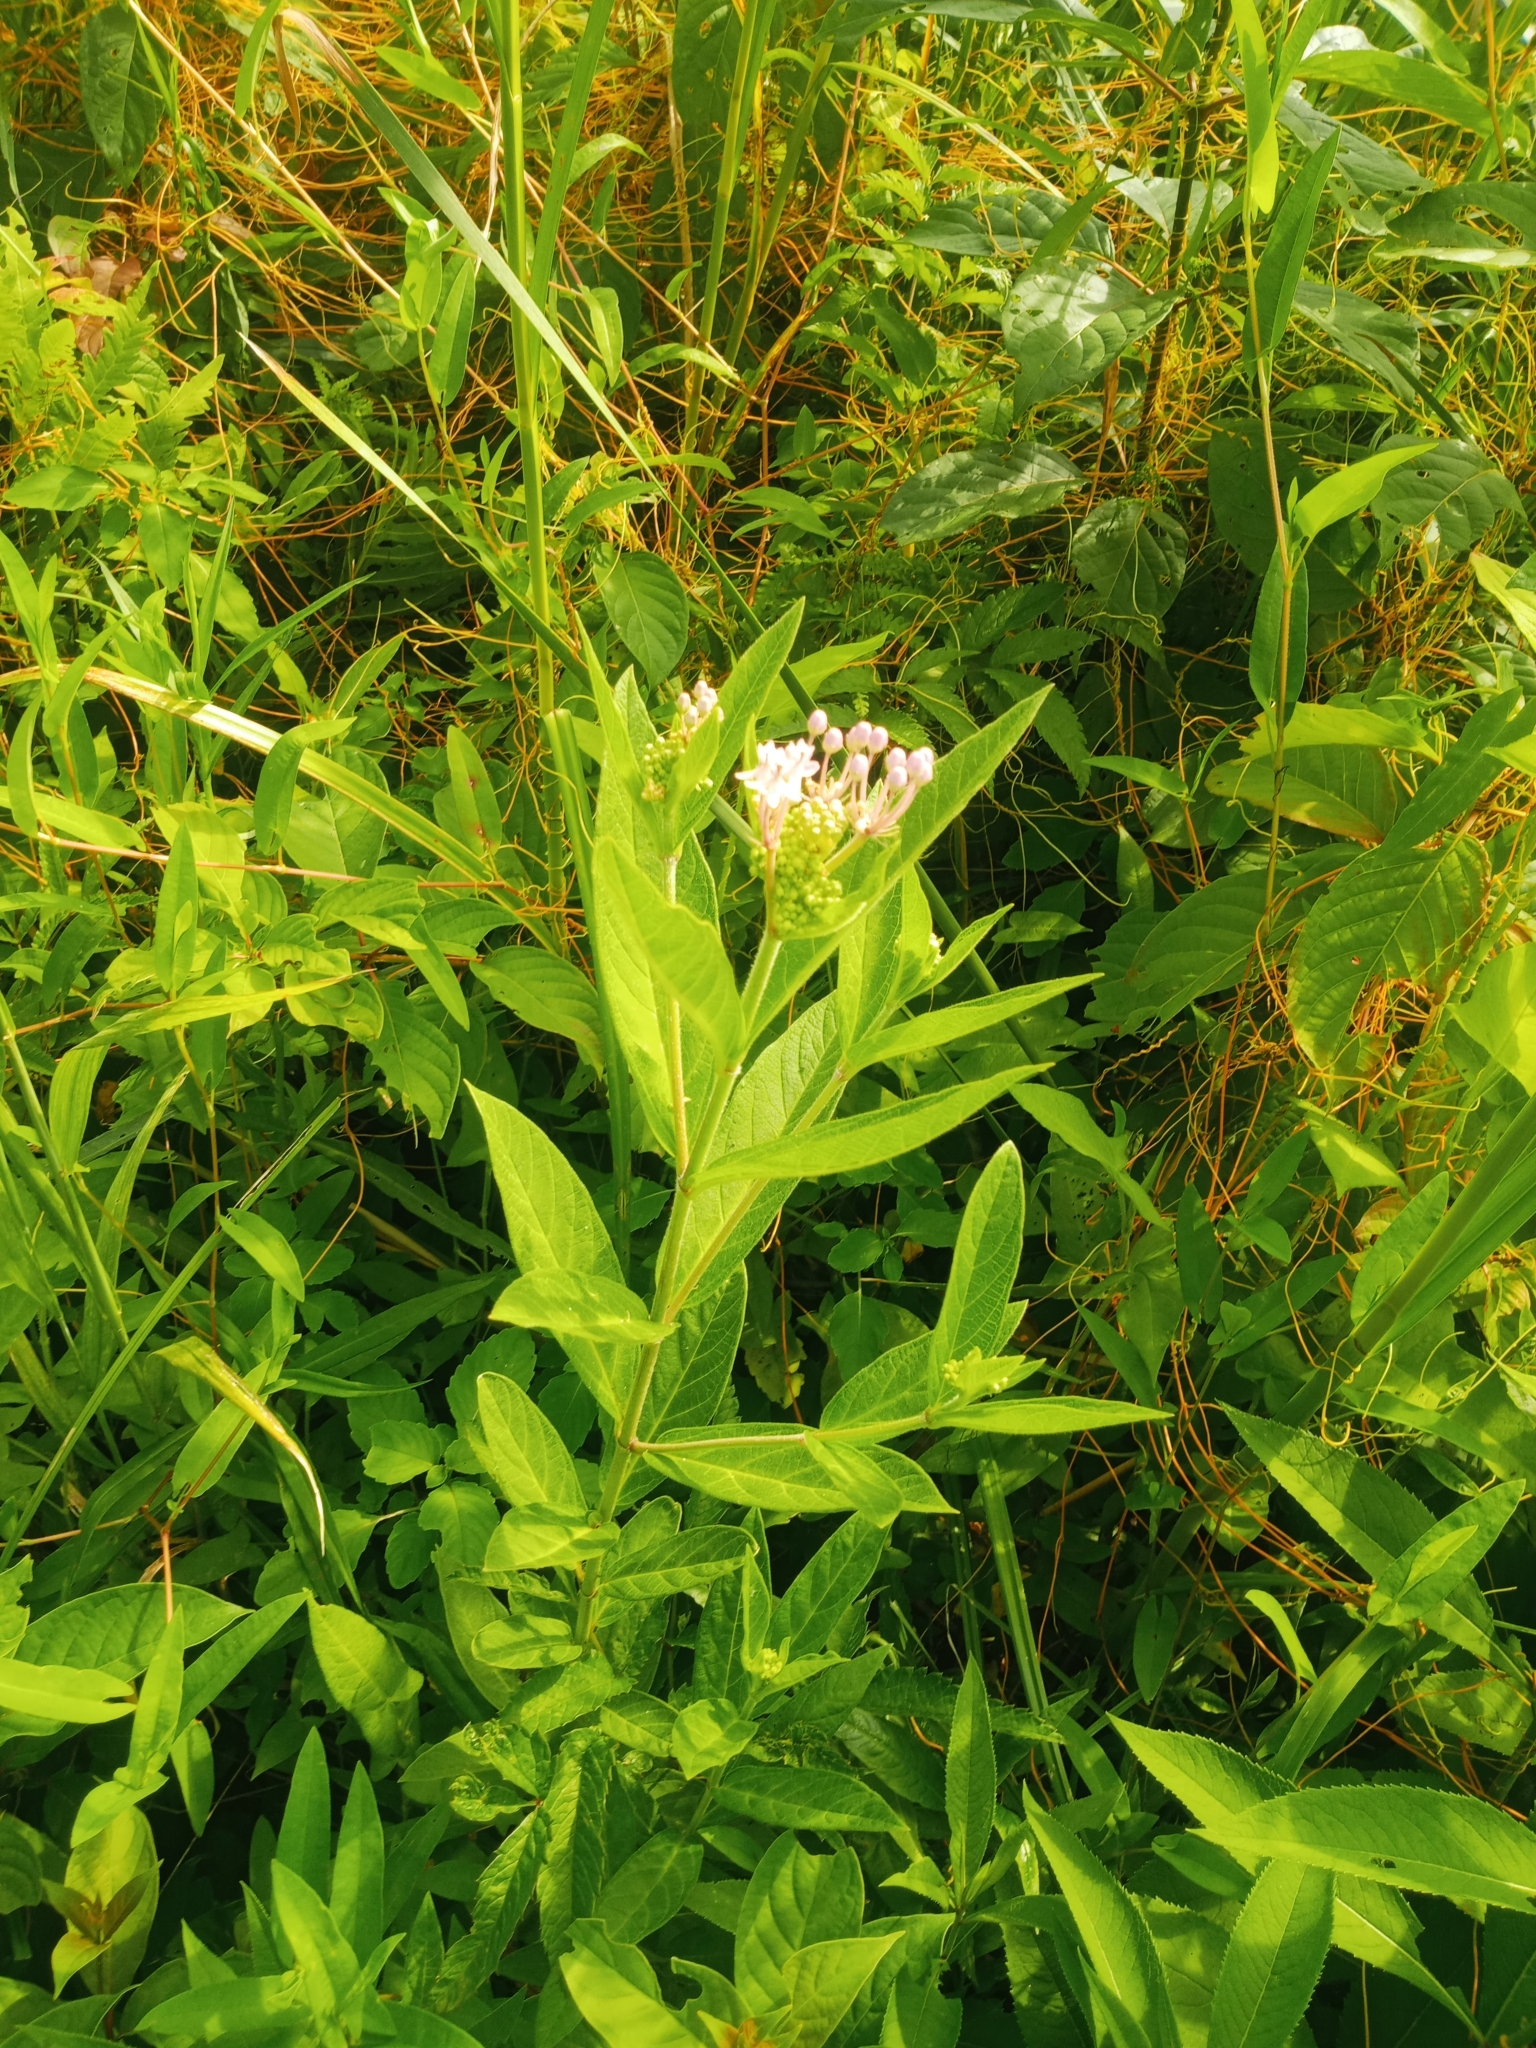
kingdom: Plantae
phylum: Tracheophyta
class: Magnoliopsida
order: Gentianales
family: Apocynaceae
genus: Asclepias
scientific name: Asclepias incarnata
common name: Swamp milkweed
